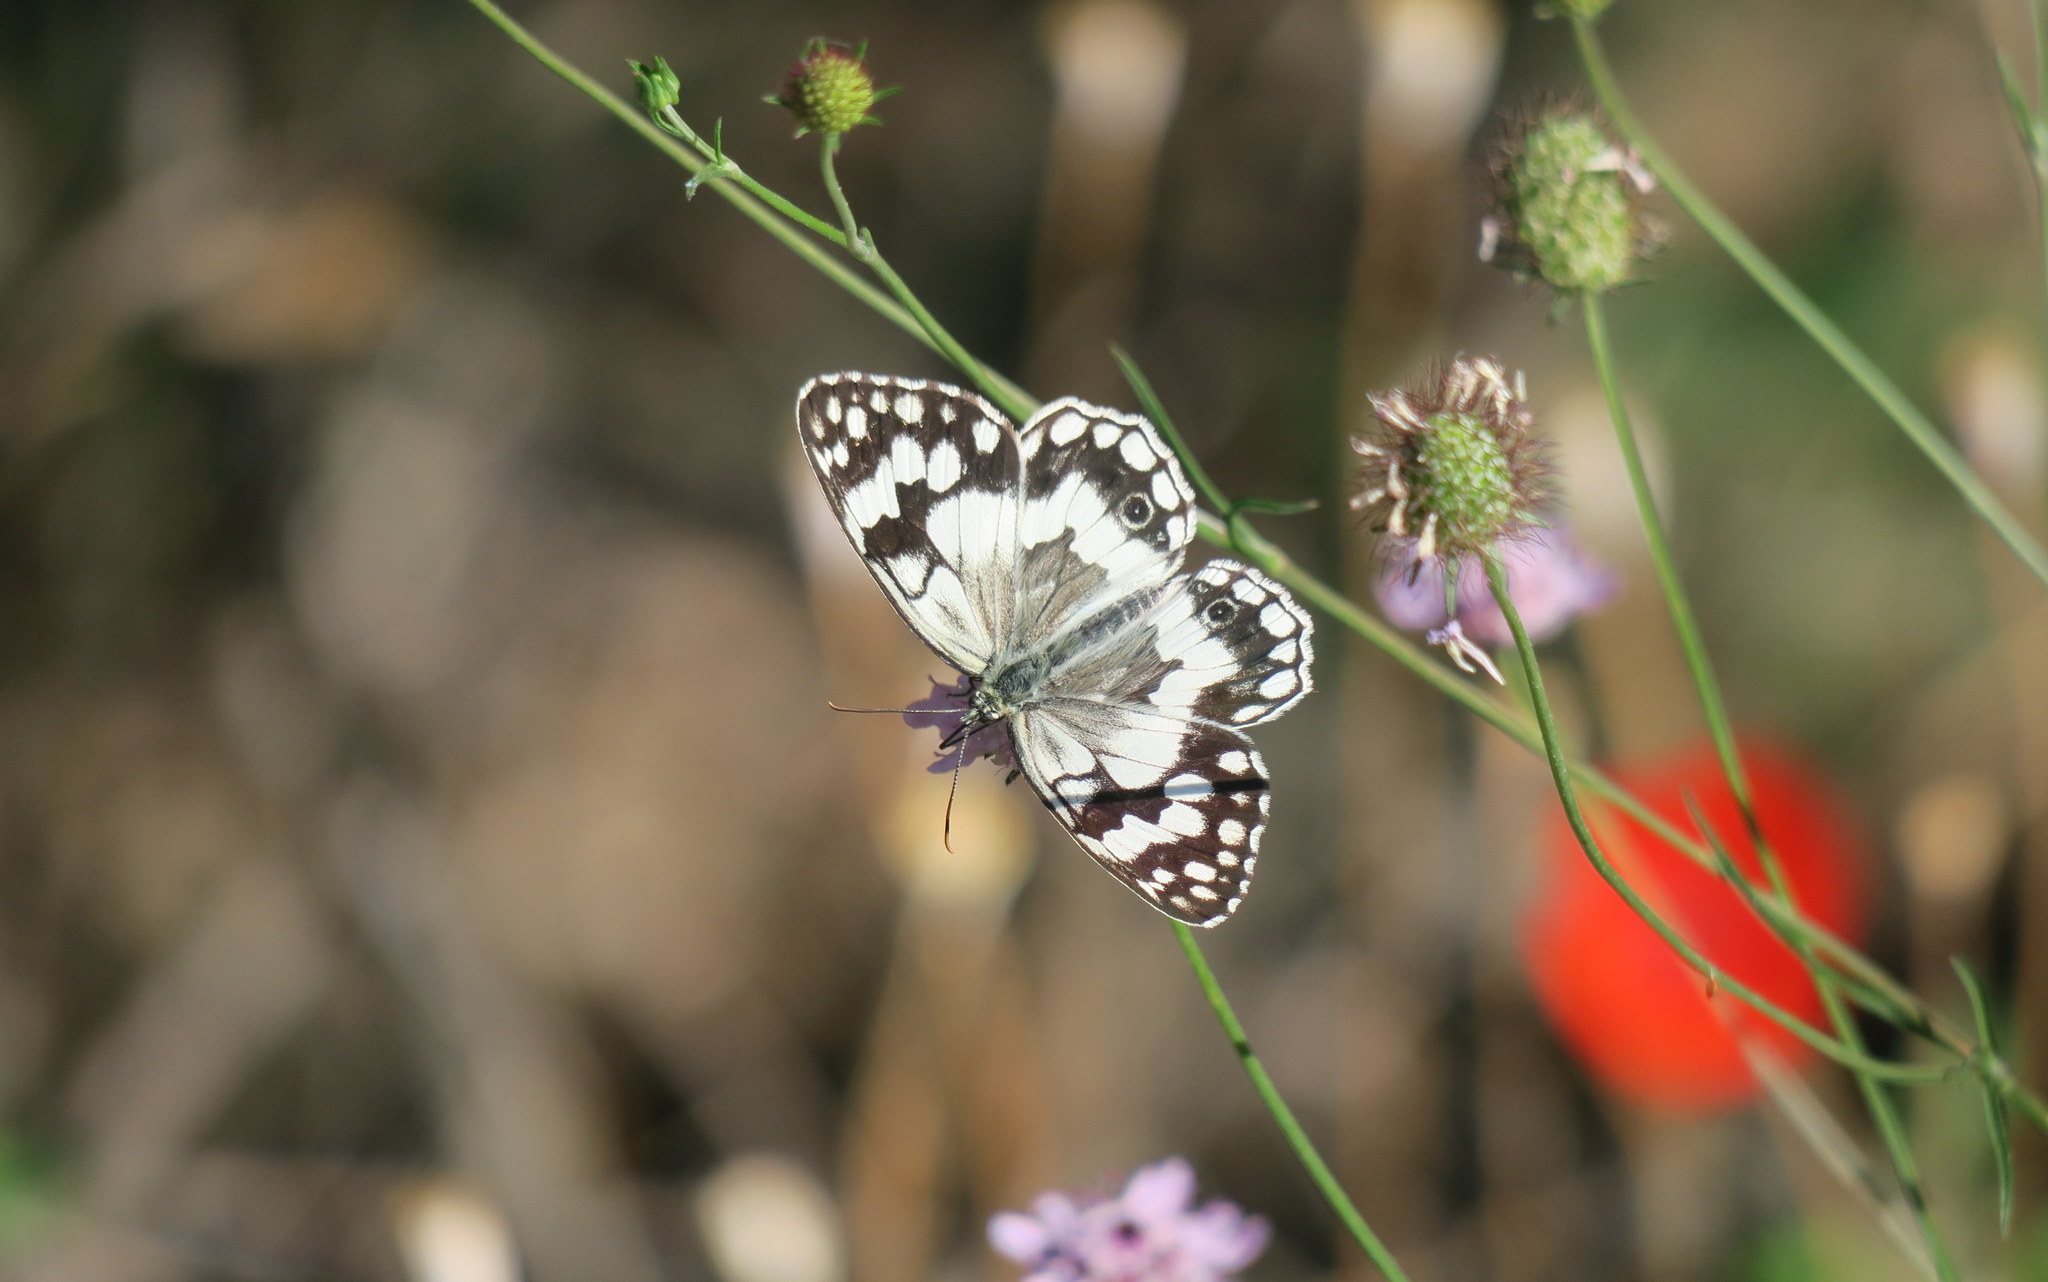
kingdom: Animalia
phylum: Arthropoda
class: Insecta
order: Lepidoptera
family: Nymphalidae
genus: Melanargia
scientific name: Melanargia larissa
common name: Balkan marbled white
